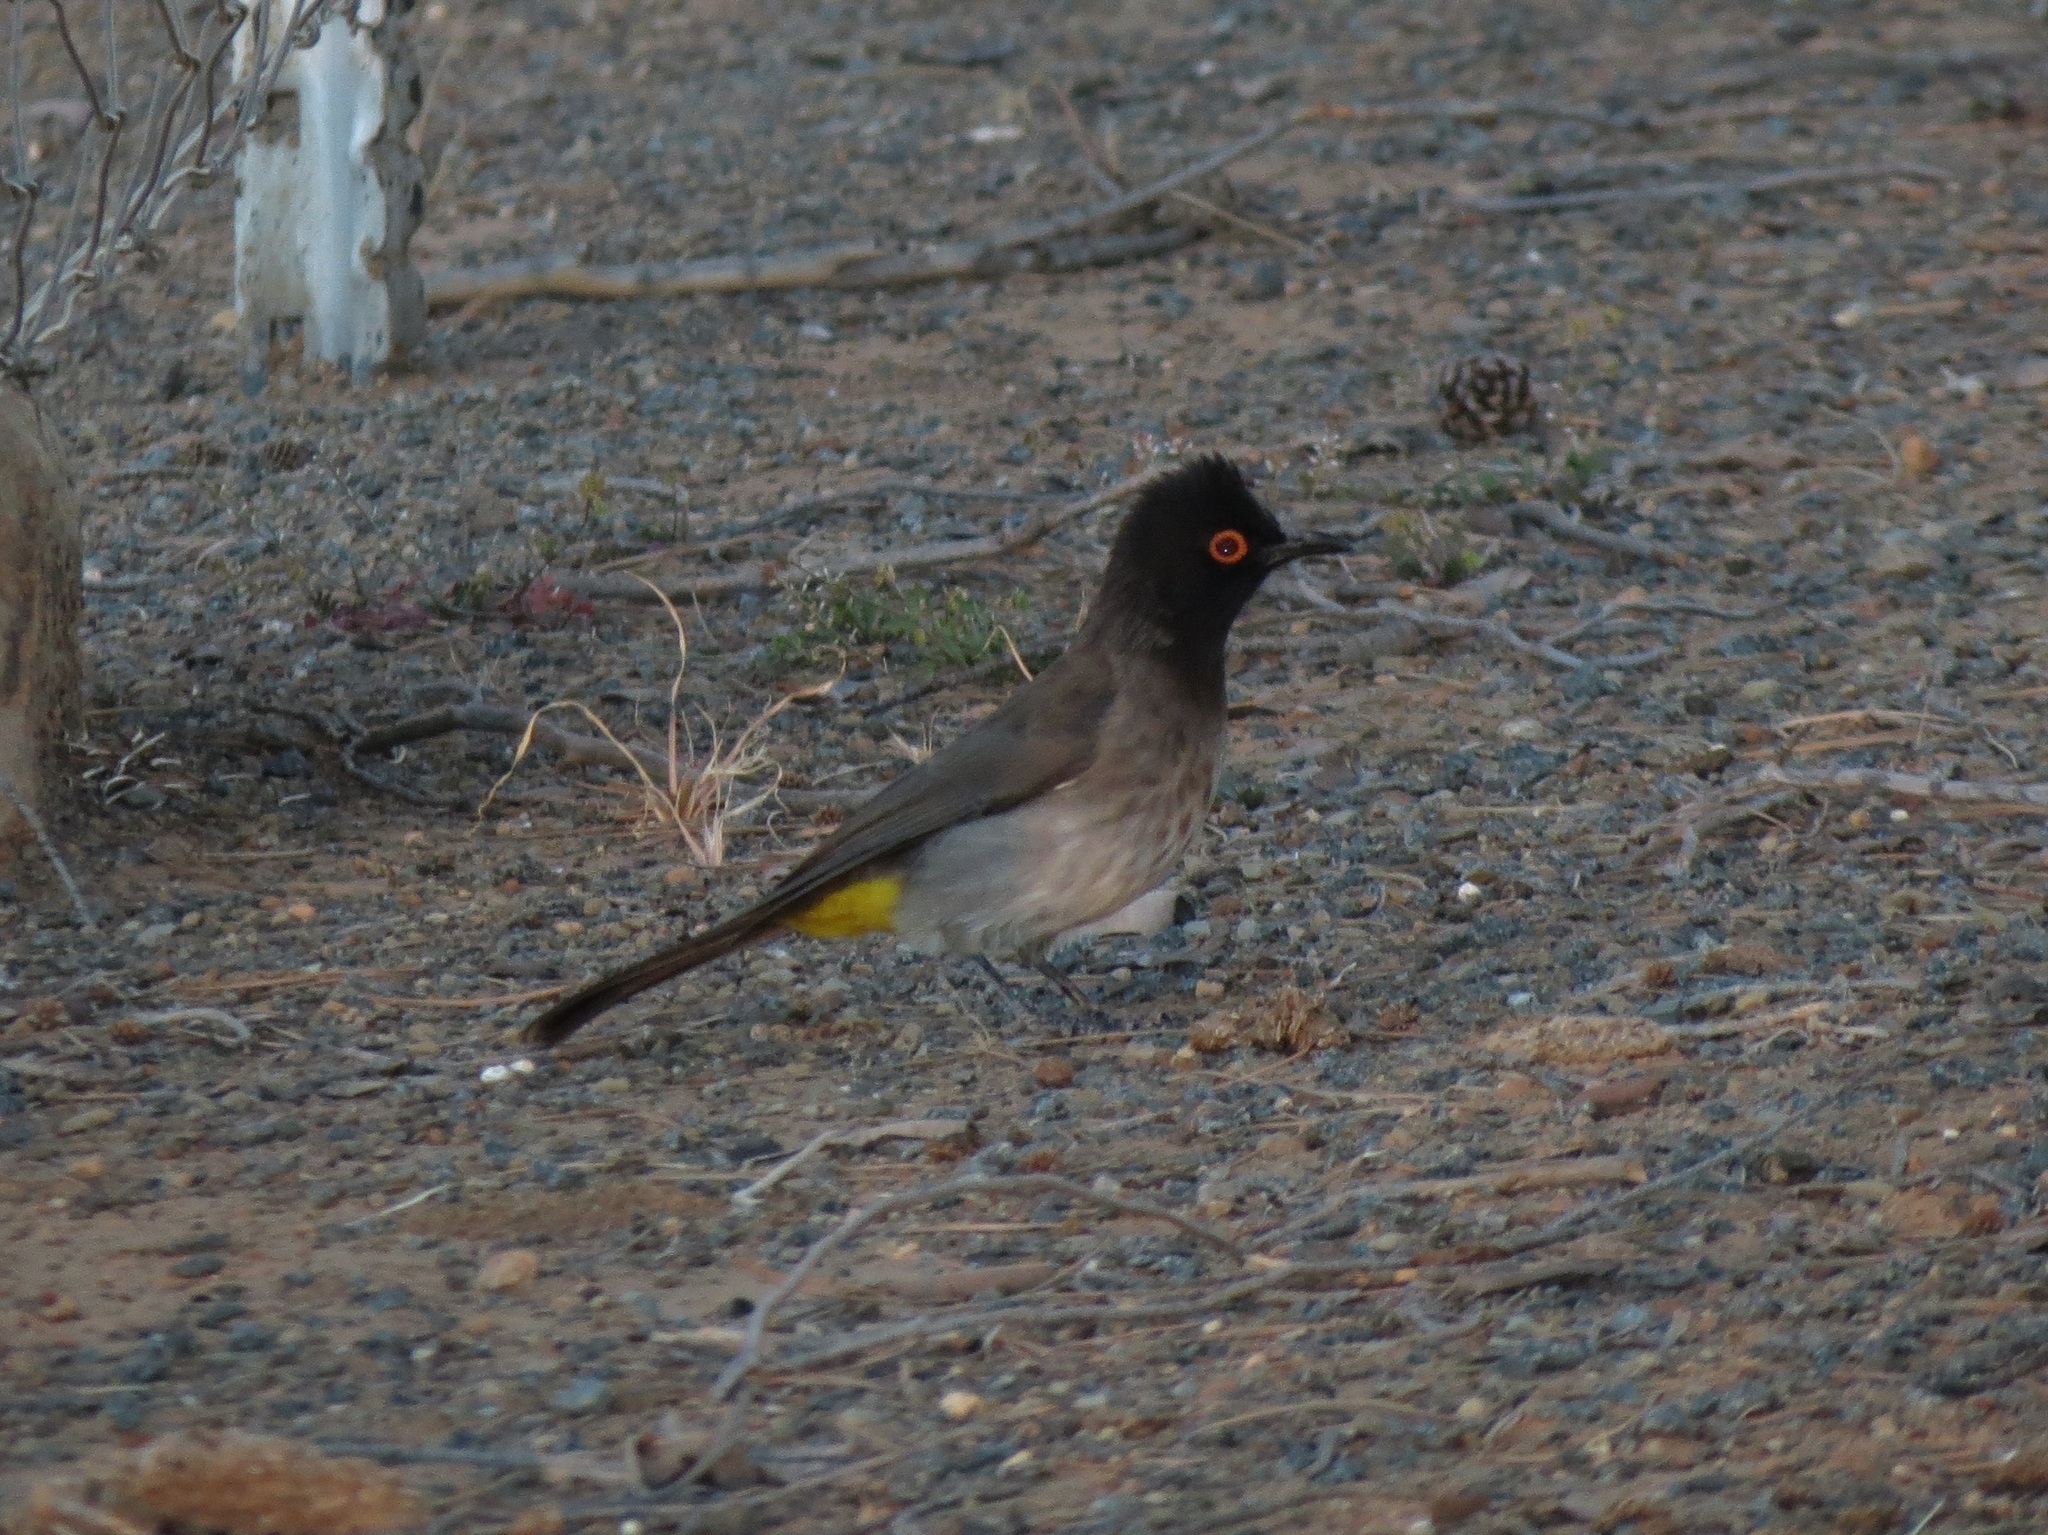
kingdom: Animalia
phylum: Chordata
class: Aves
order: Passeriformes
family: Pycnonotidae
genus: Pycnonotus
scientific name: Pycnonotus nigricans
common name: African red-eyed bulbul
